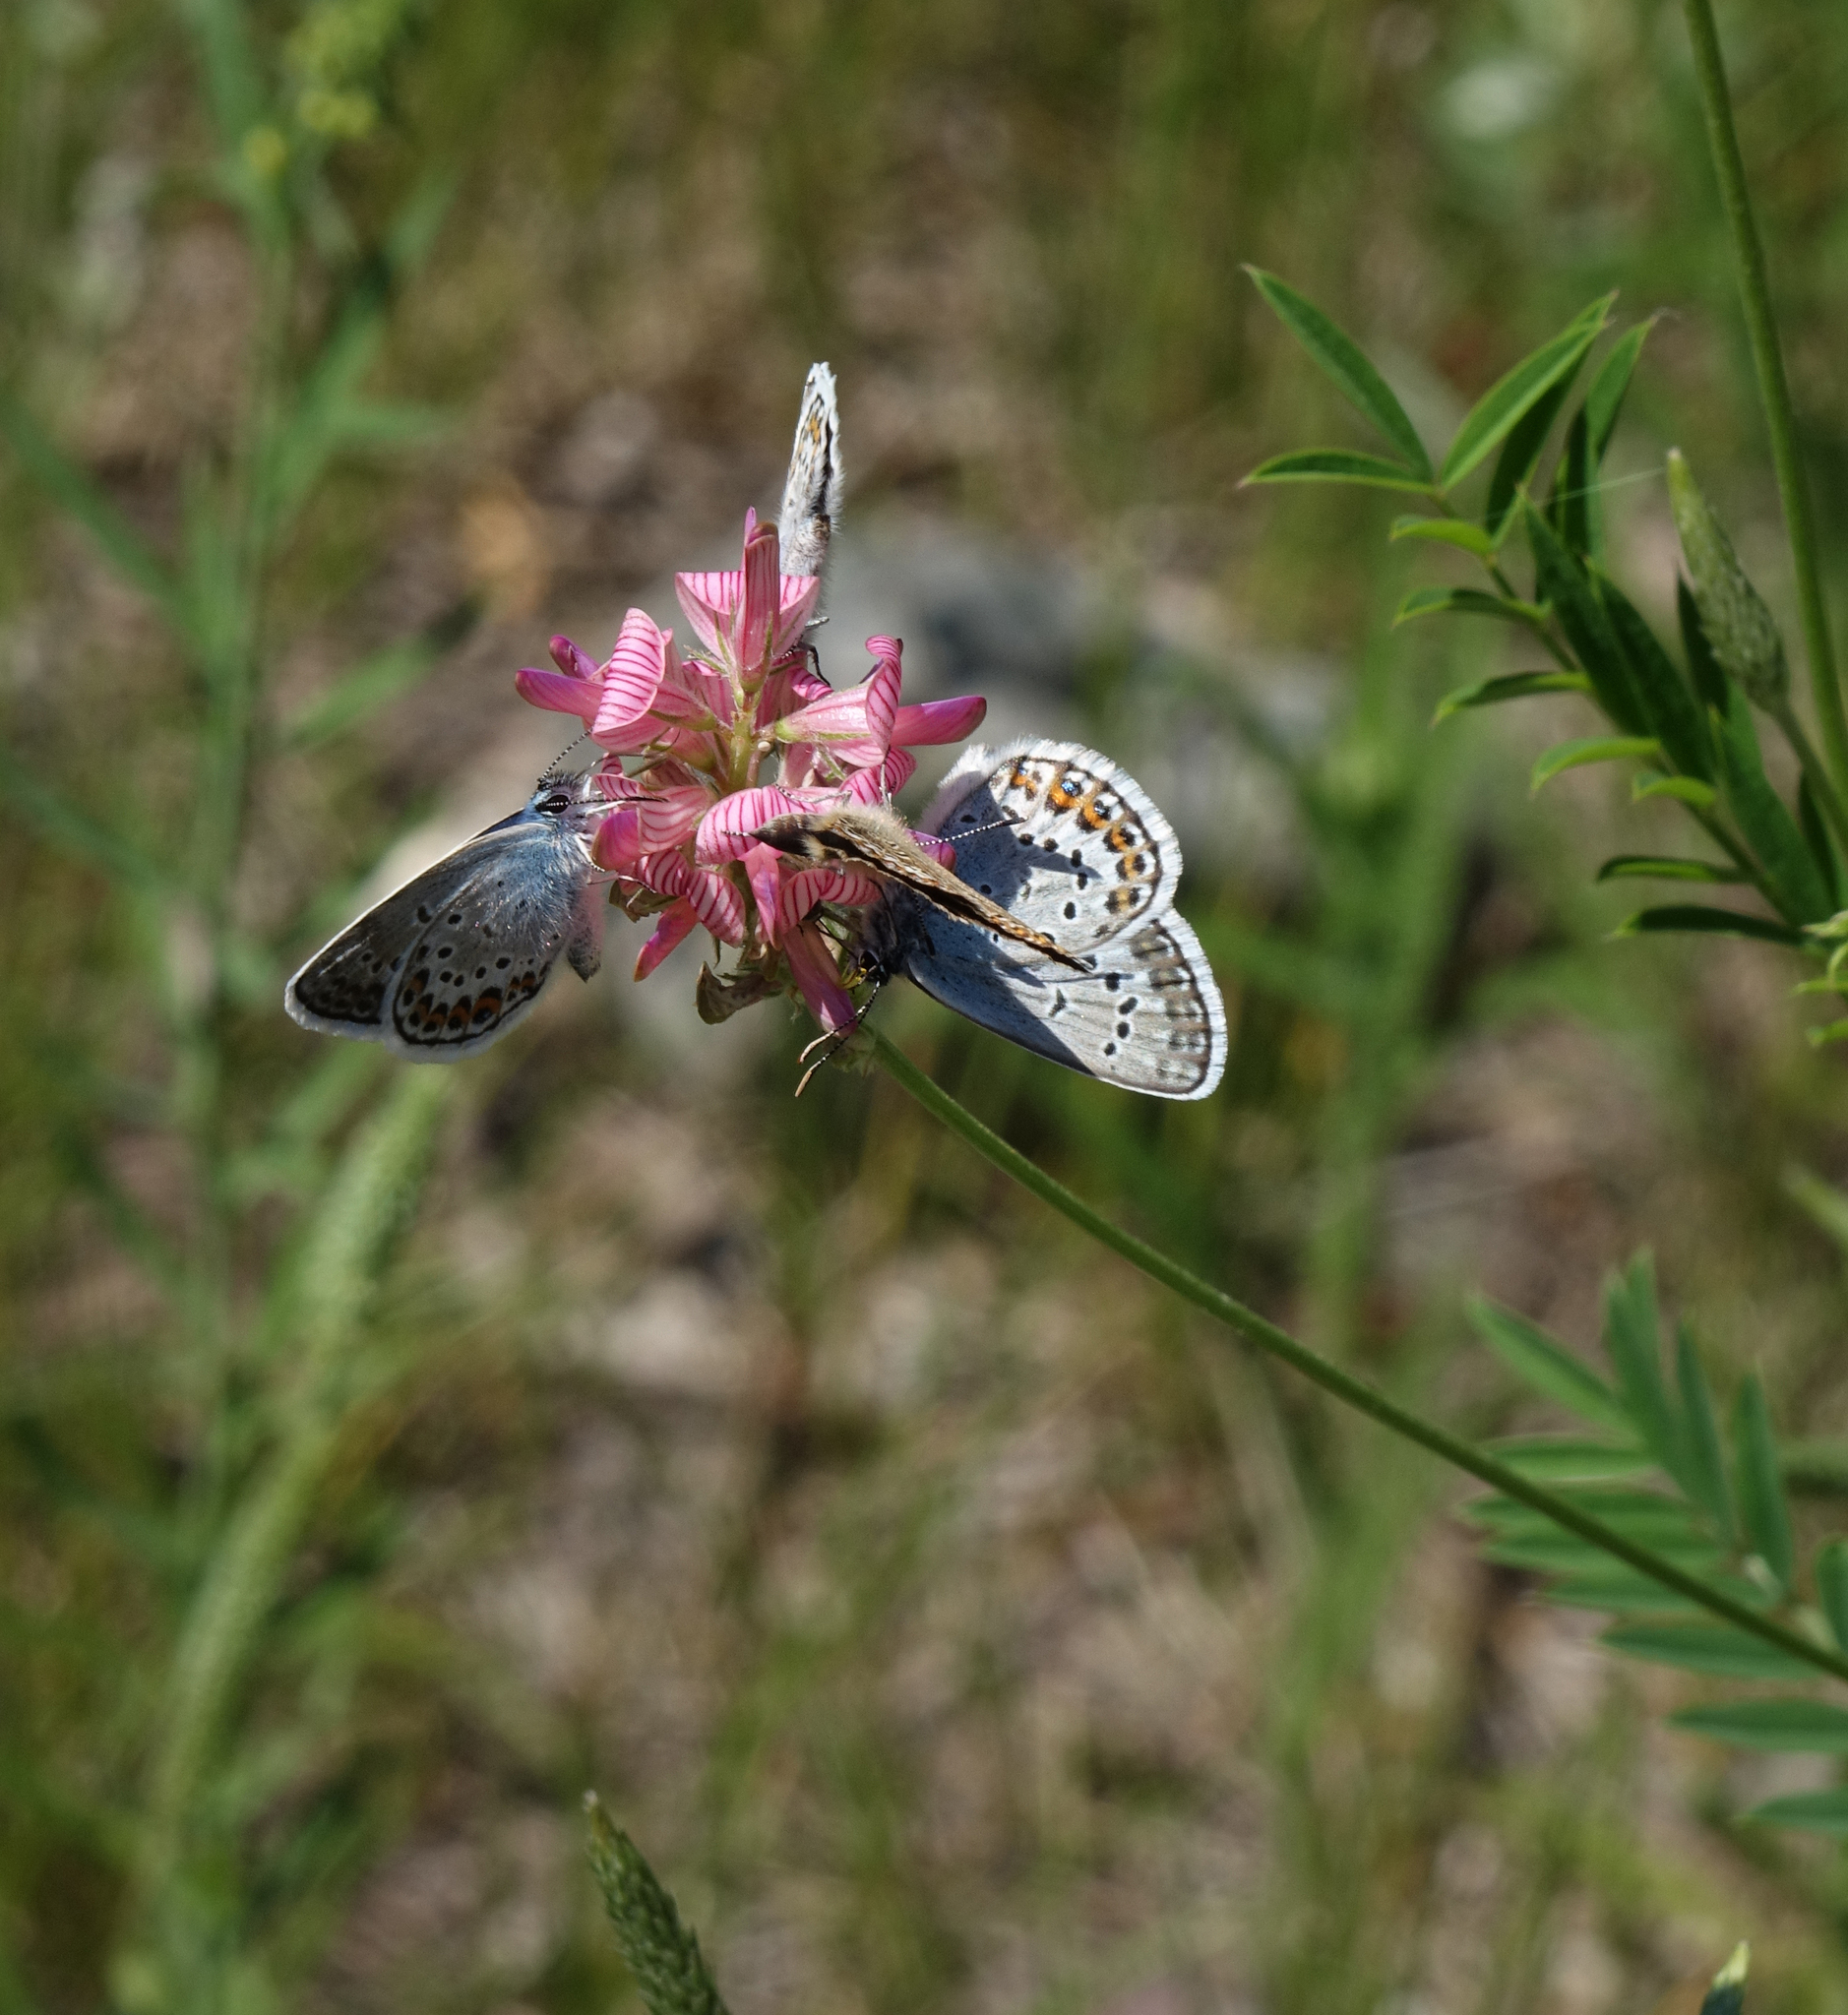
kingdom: Animalia
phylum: Arthropoda
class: Insecta
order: Lepidoptera
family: Lycaenidae
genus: Plebejus
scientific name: Plebejus argus
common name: Silver-studded blue
